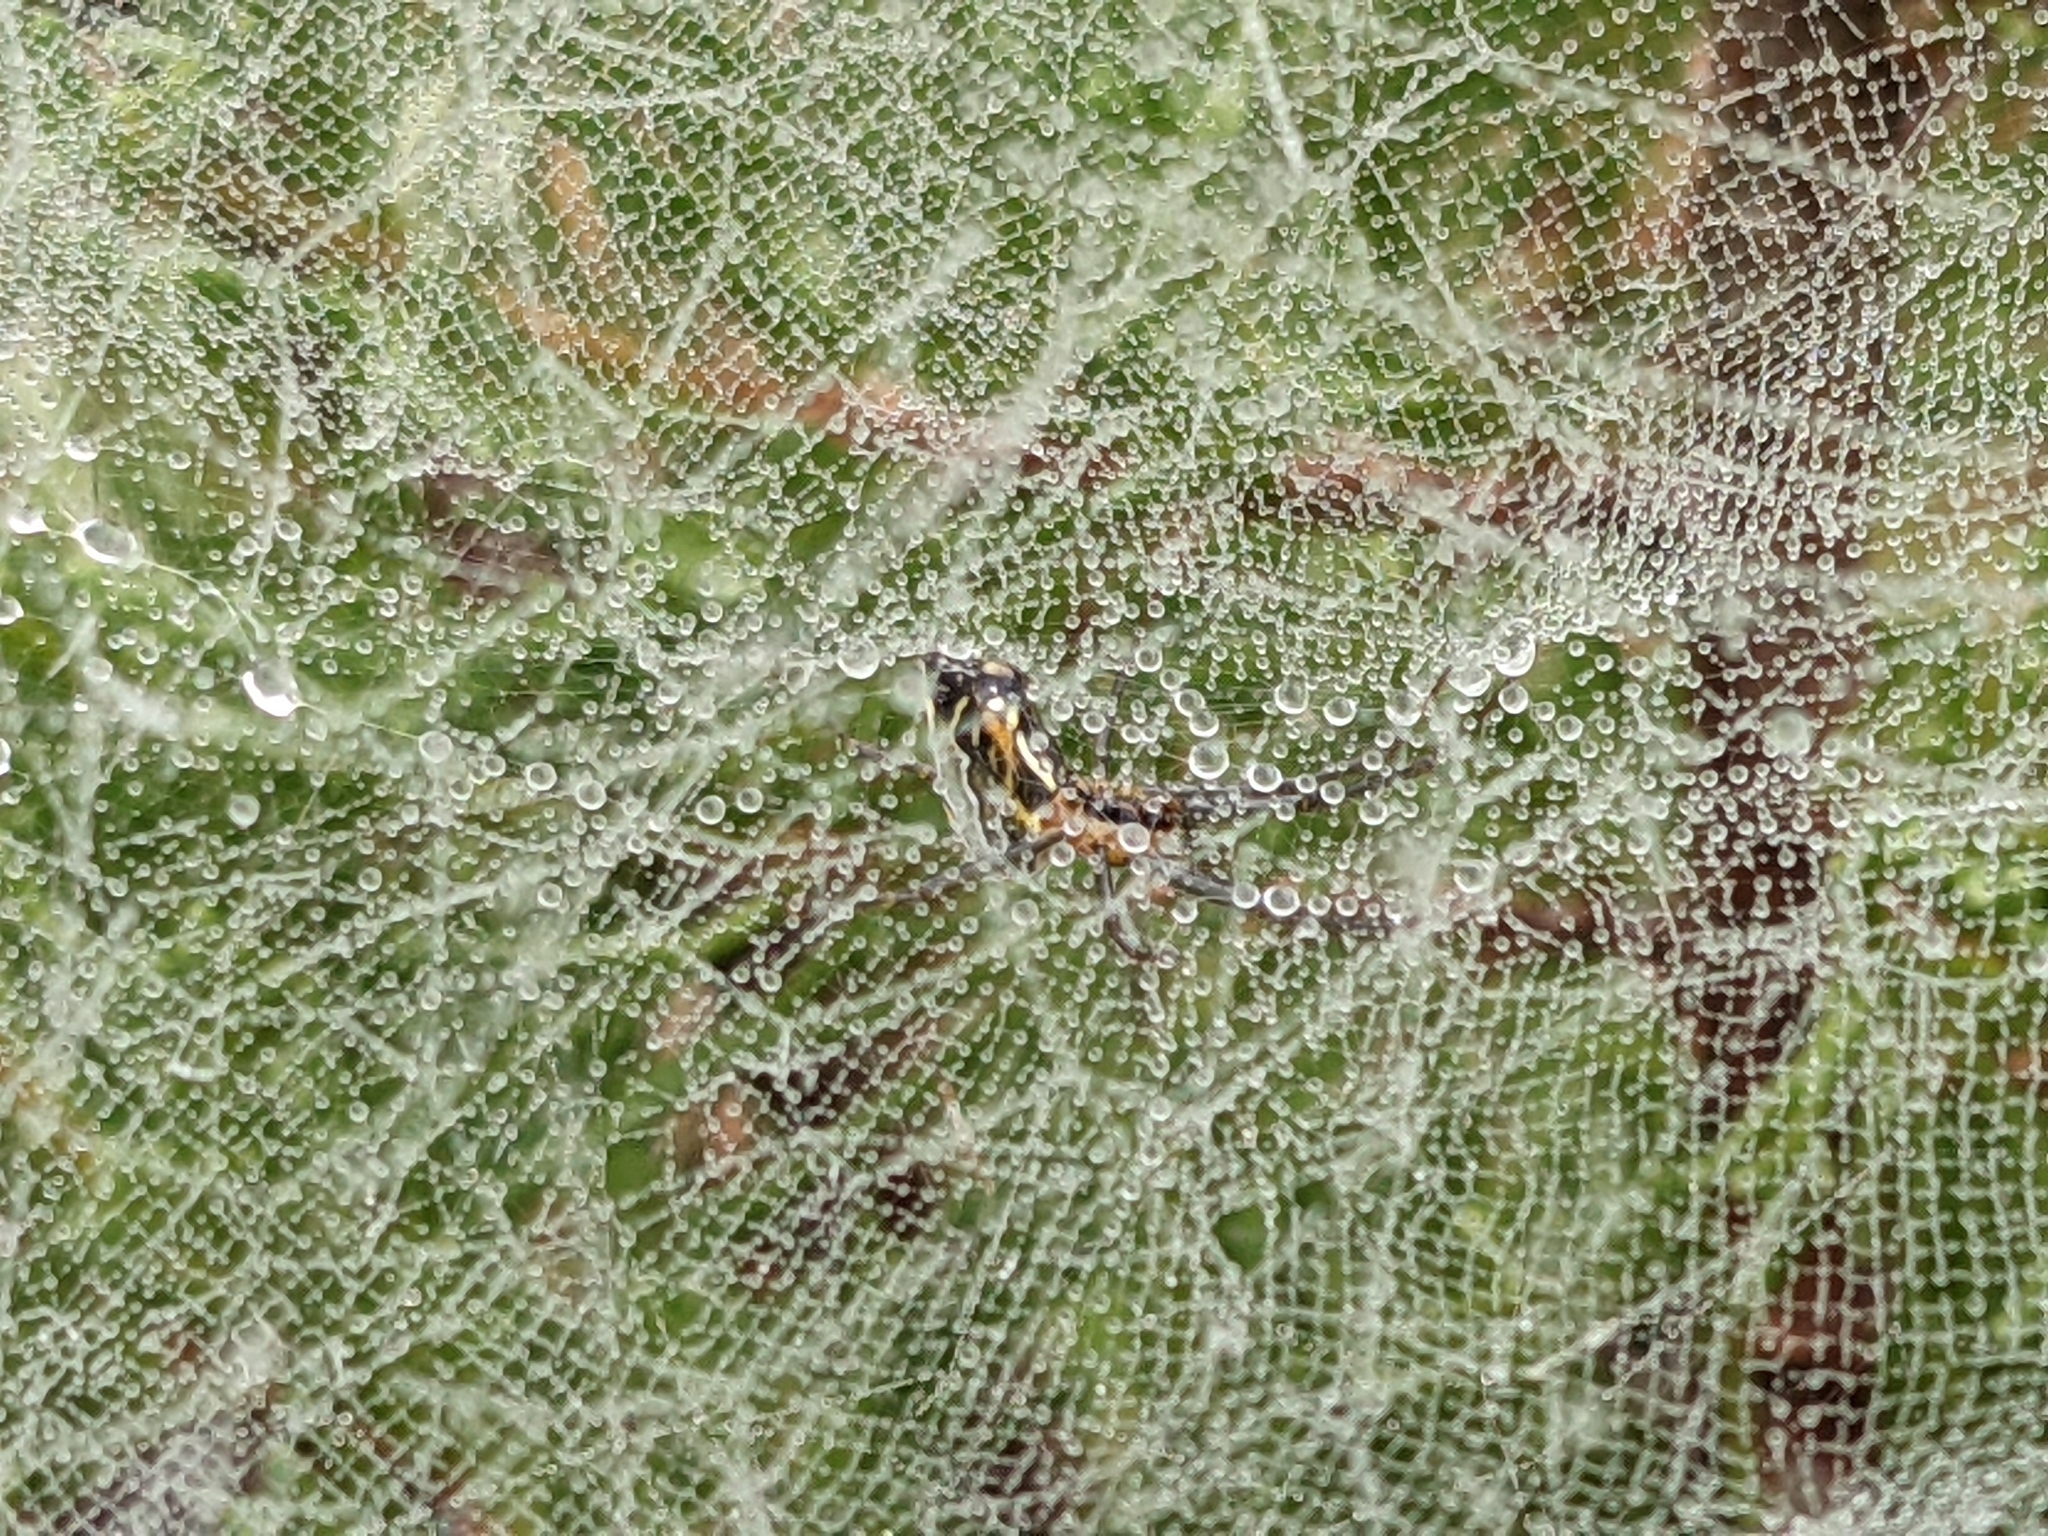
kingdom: Animalia
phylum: Arthropoda
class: Arachnida
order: Araneae
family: Araneidae
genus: Mecynogea
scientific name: Mecynogea lemniscata
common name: Orb weavers
